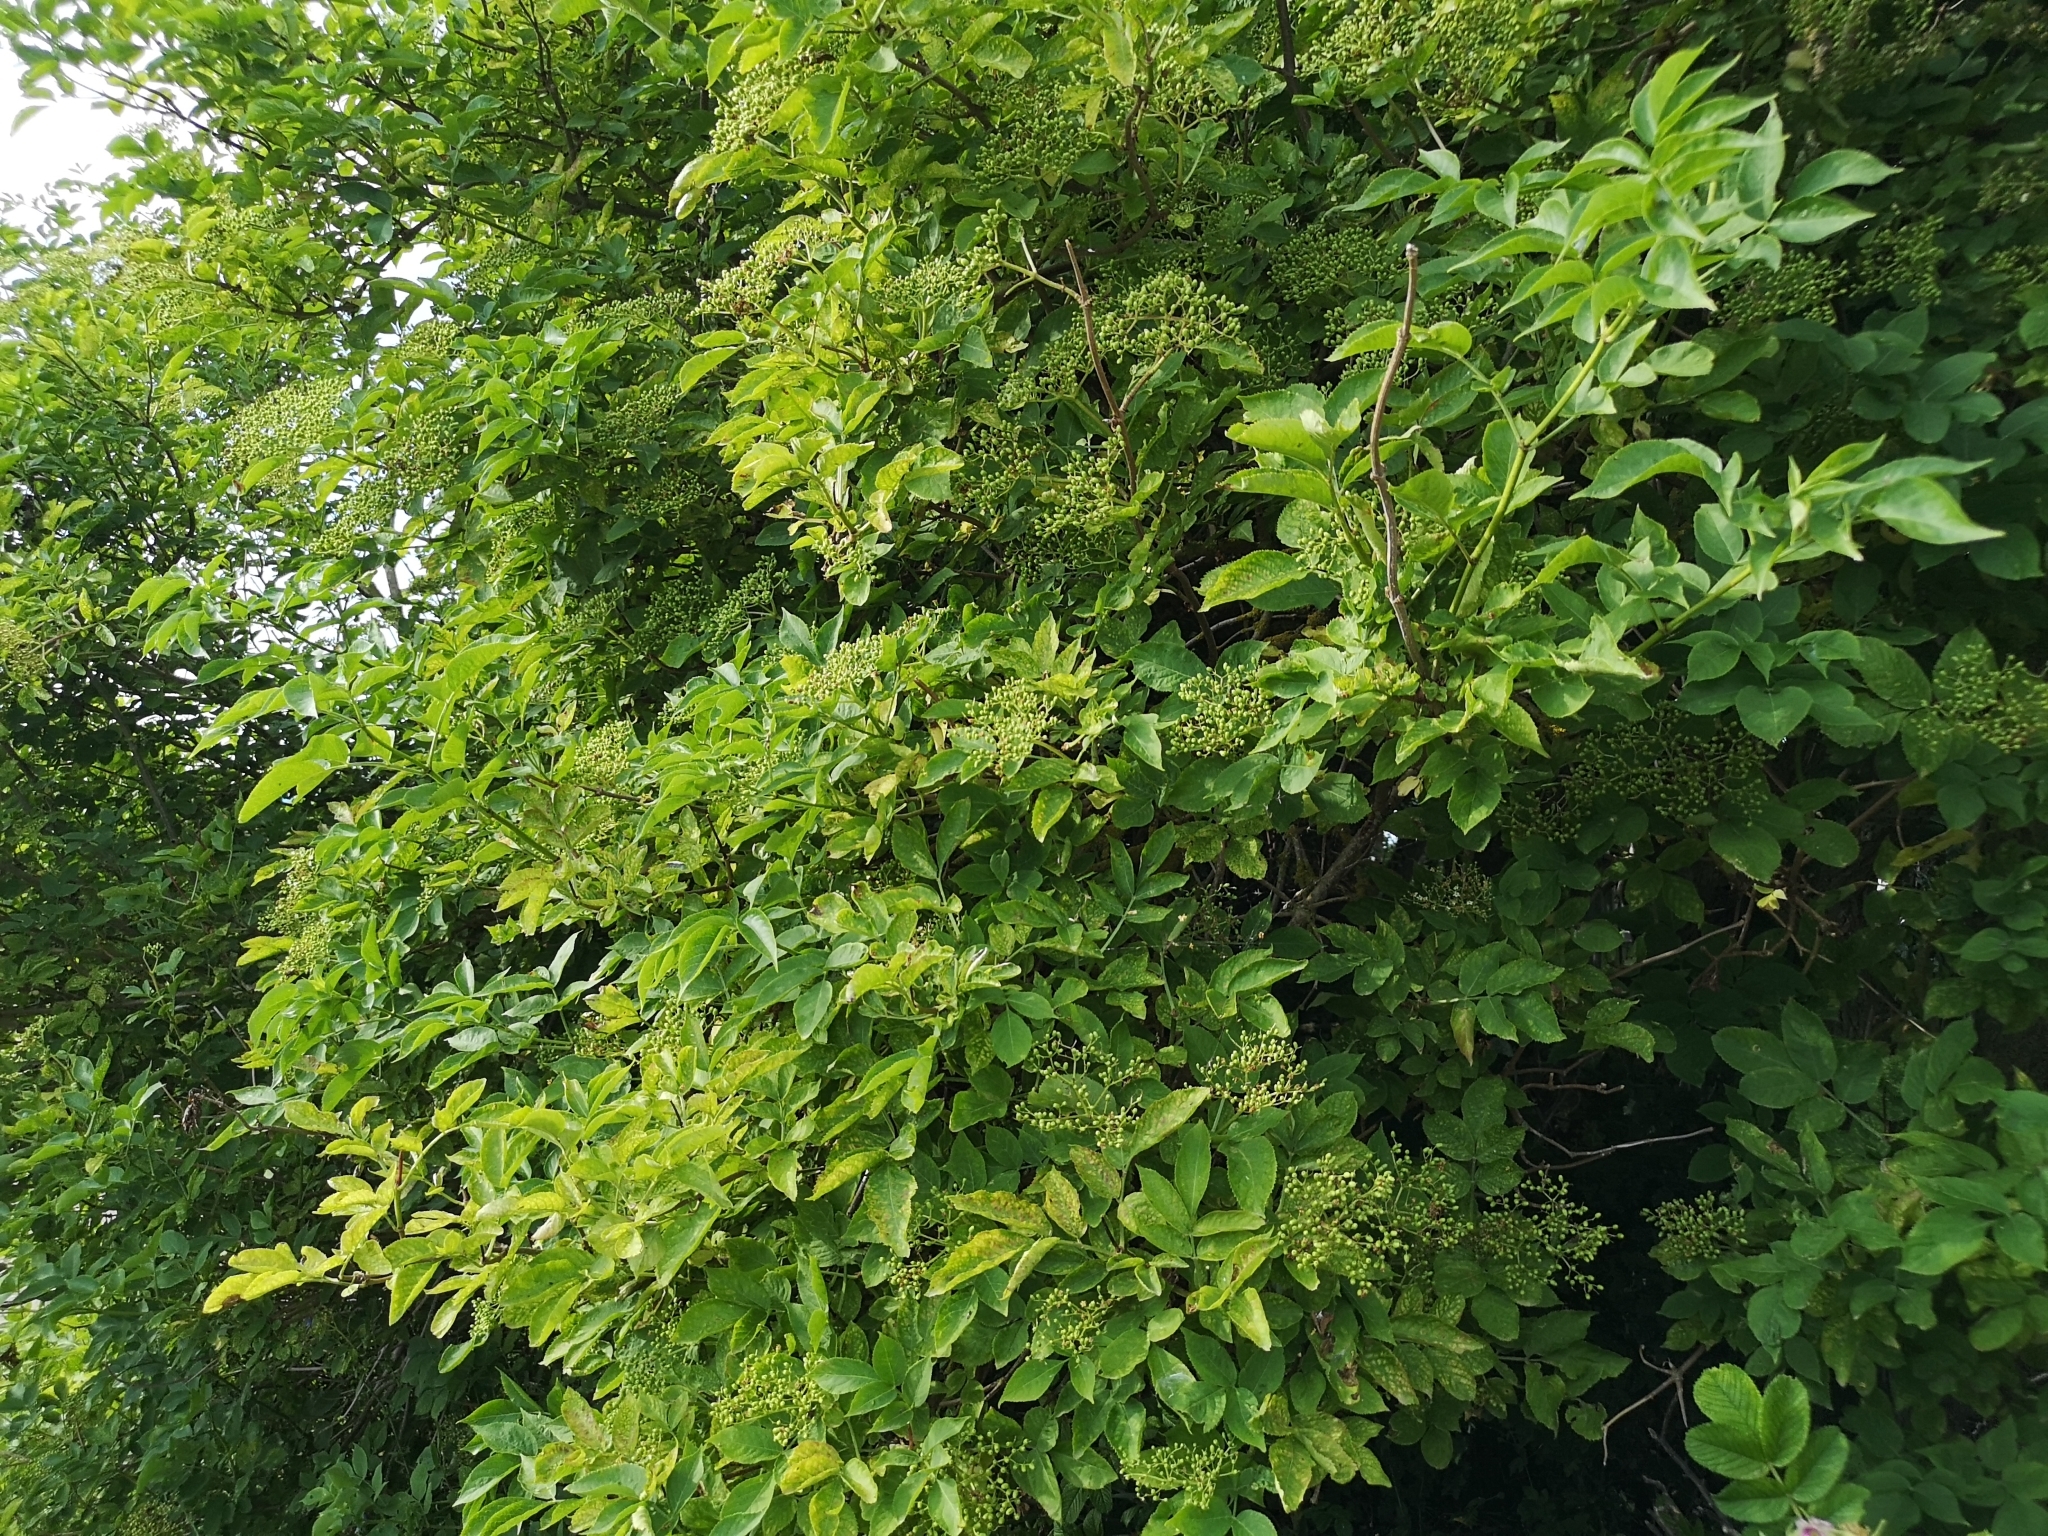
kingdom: Plantae
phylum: Tracheophyta
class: Magnoliopsida
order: Dipsacales
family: Viburnaceae
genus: Sambucus
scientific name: Sambucus nigra
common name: Elder
